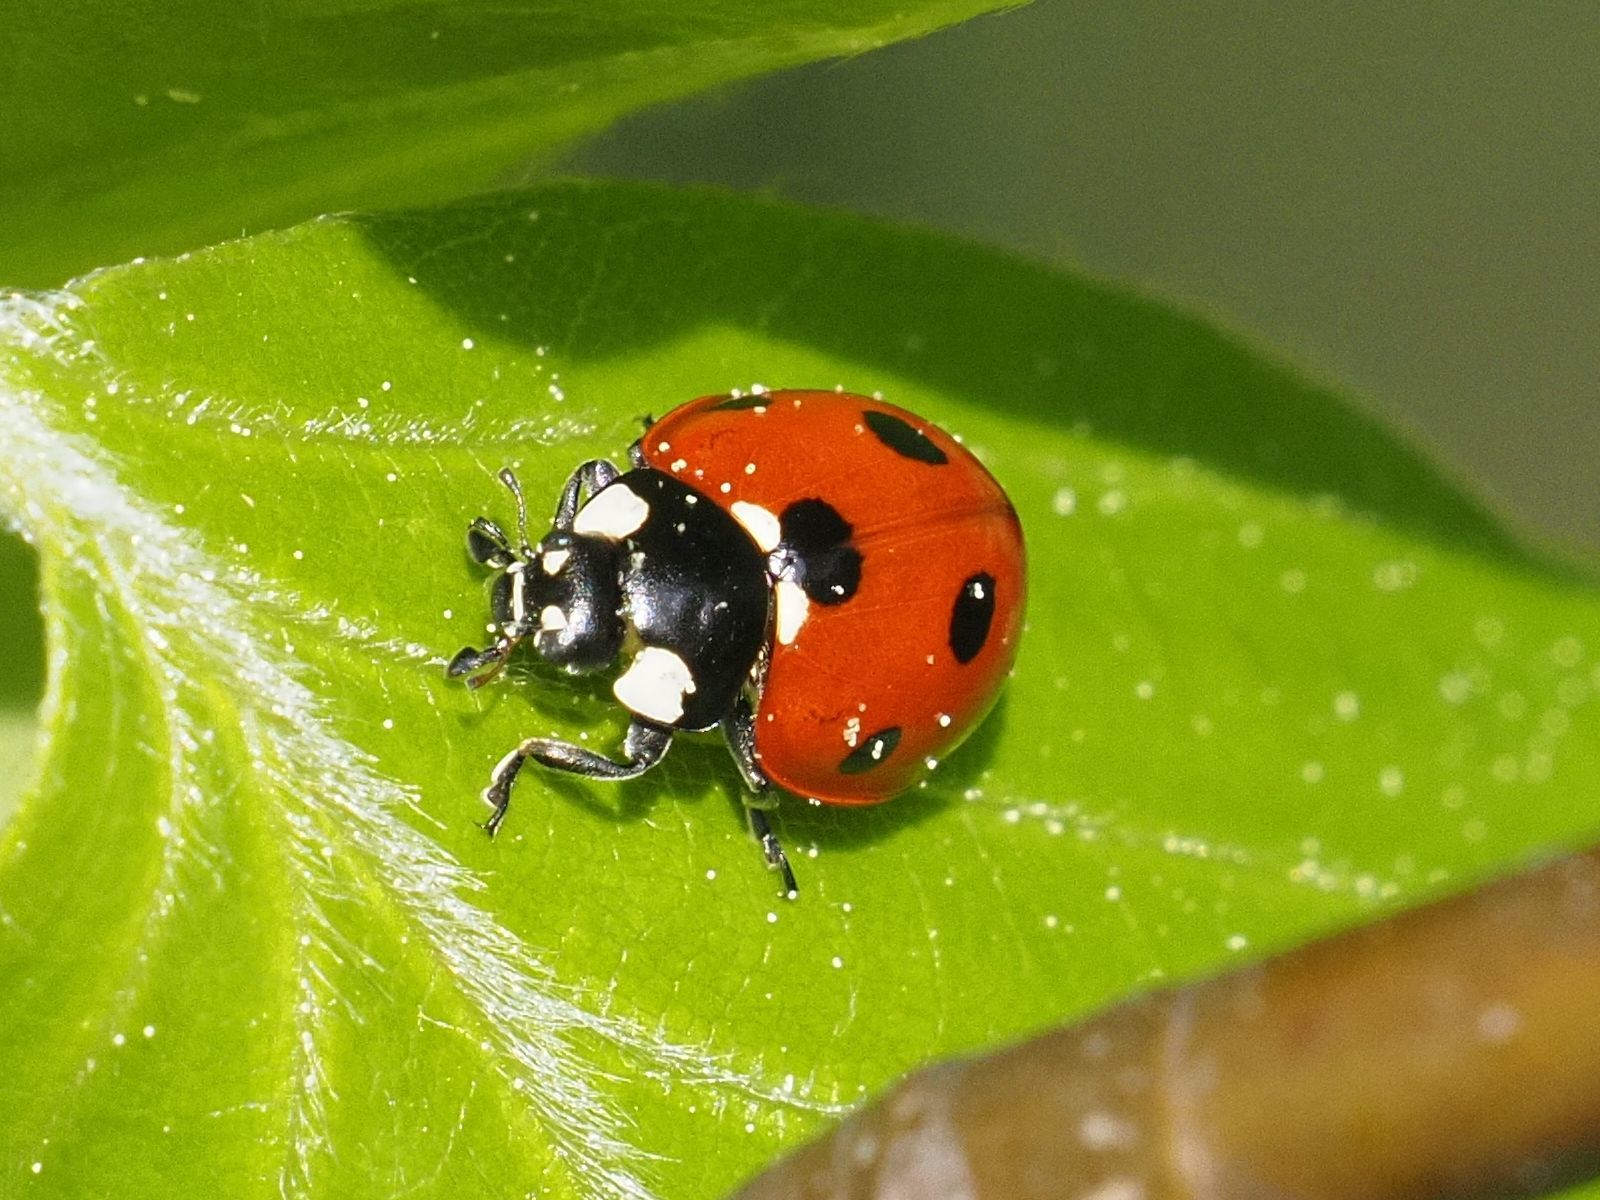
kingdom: Animalia
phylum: Arthropoda
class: Insecta
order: Coleoptera
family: Coccinellidae
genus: Coccinella
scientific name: Coccinella septempunctata
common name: Sevenspotted lady beetle
